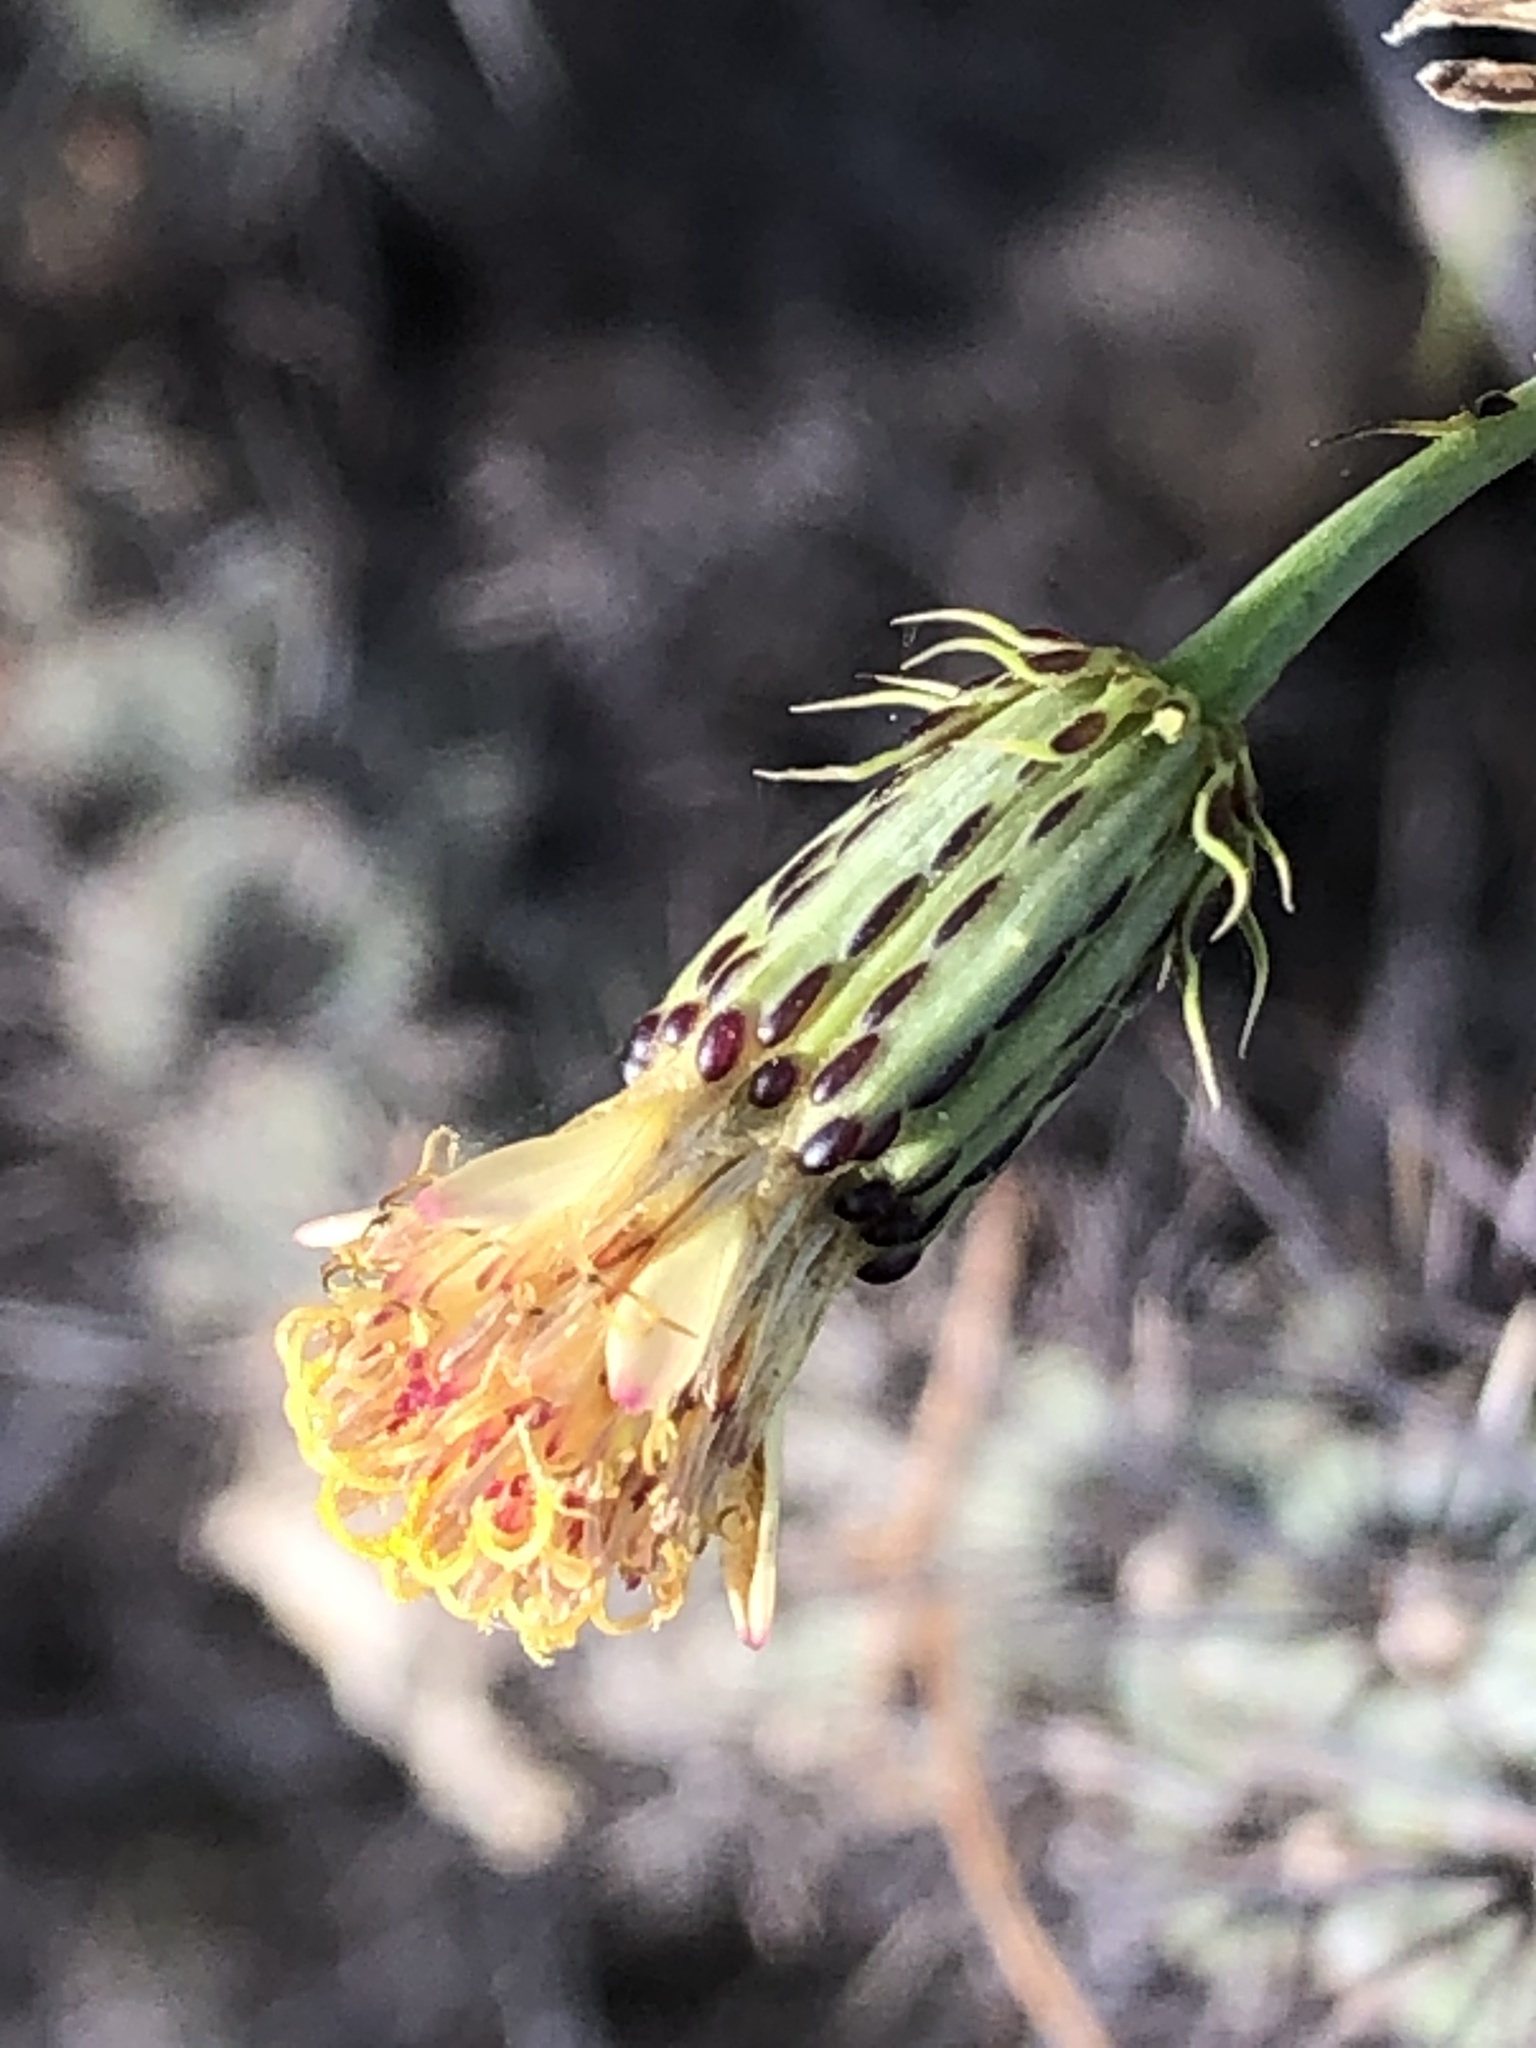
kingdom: Plantae
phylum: Tracheophyta
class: Magnoliopsida
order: Asterales
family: Asteraceae
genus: Adenophyllum
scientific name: Adenophyllum porophylloides
